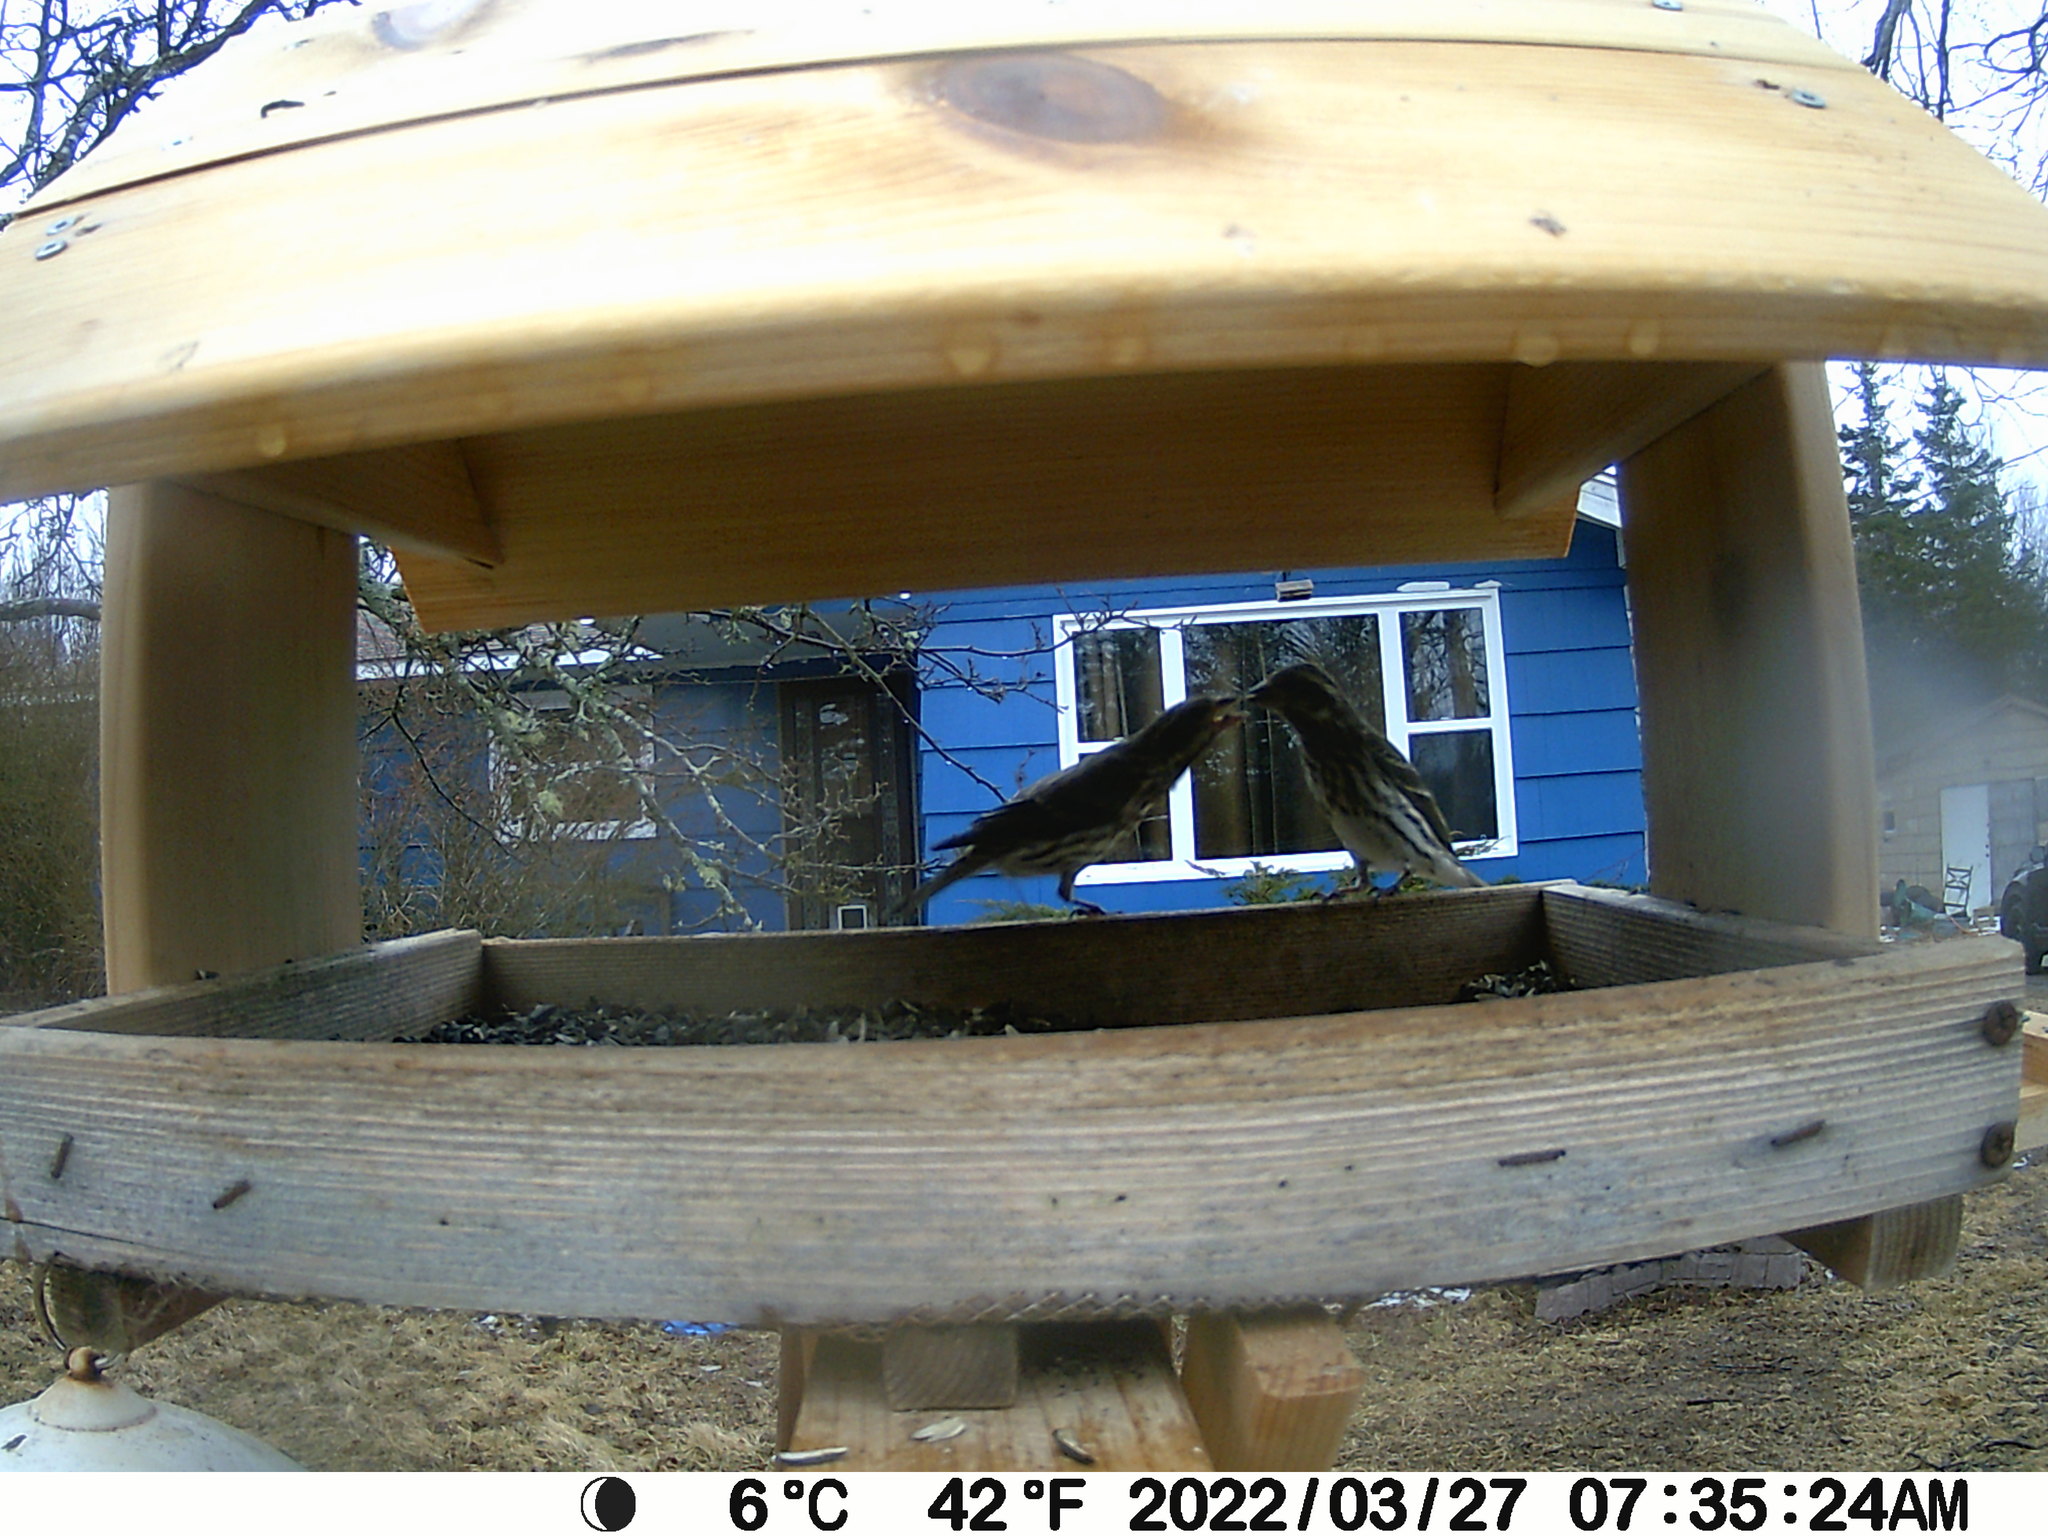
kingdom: Animalia
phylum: Chordata
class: Aves
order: Passeriformes
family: Fringillidae
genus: Haemorhous
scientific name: Haemorhous purpureus
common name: Purple finch
